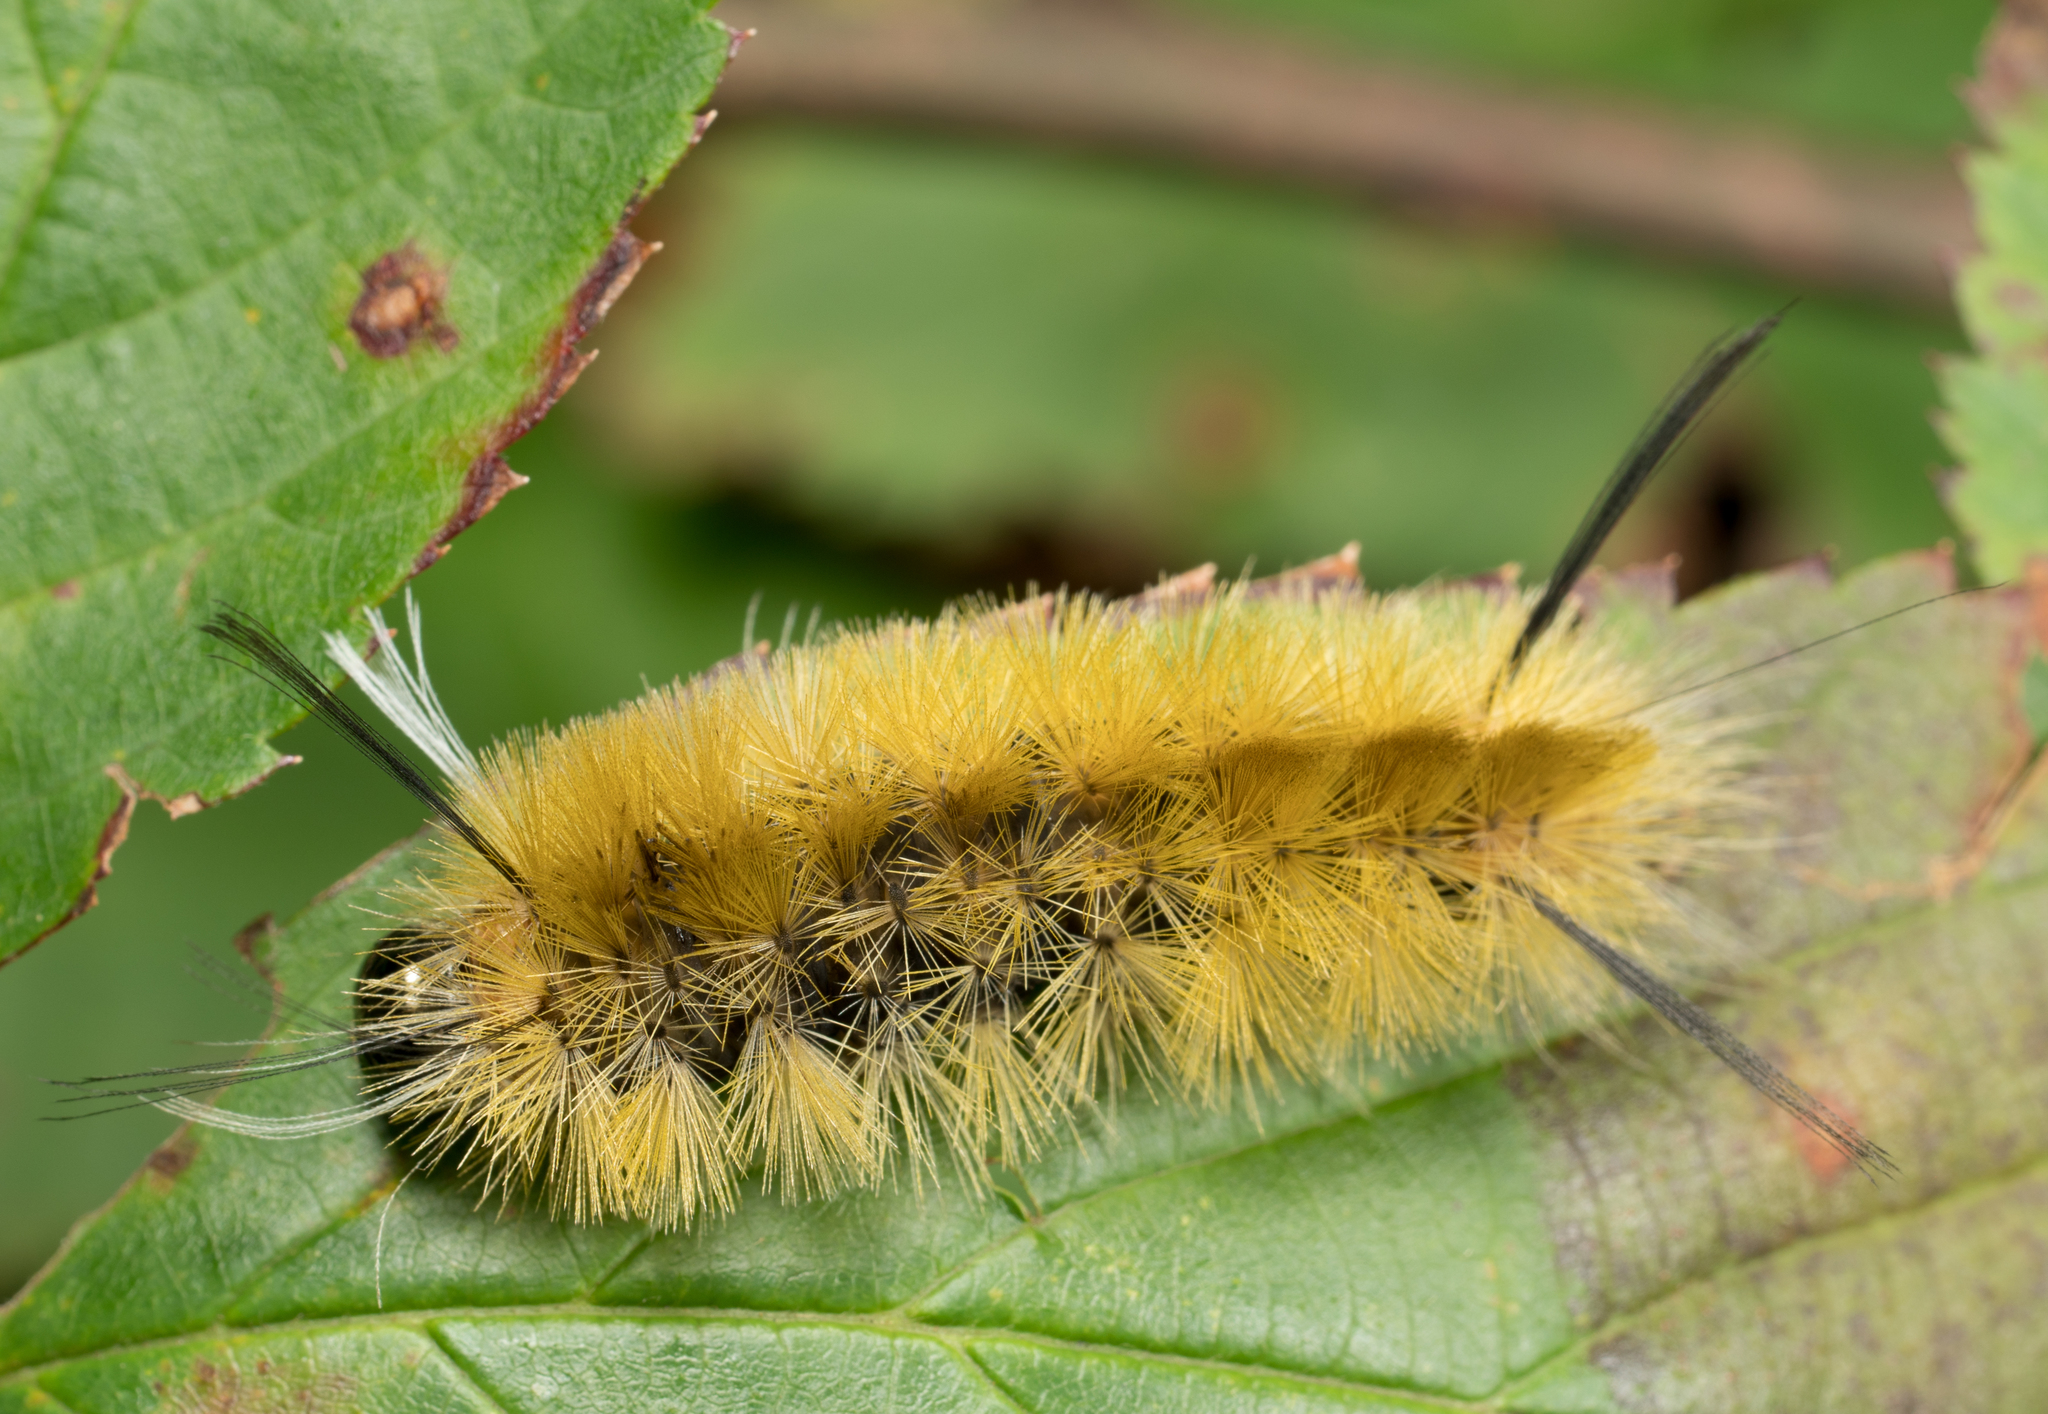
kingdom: Animalia
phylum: Arthropoda
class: Insecta
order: Lepidoptera
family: Erebidae
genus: Halysidota
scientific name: Halysidota tessellaris
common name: Banded tussock moth
